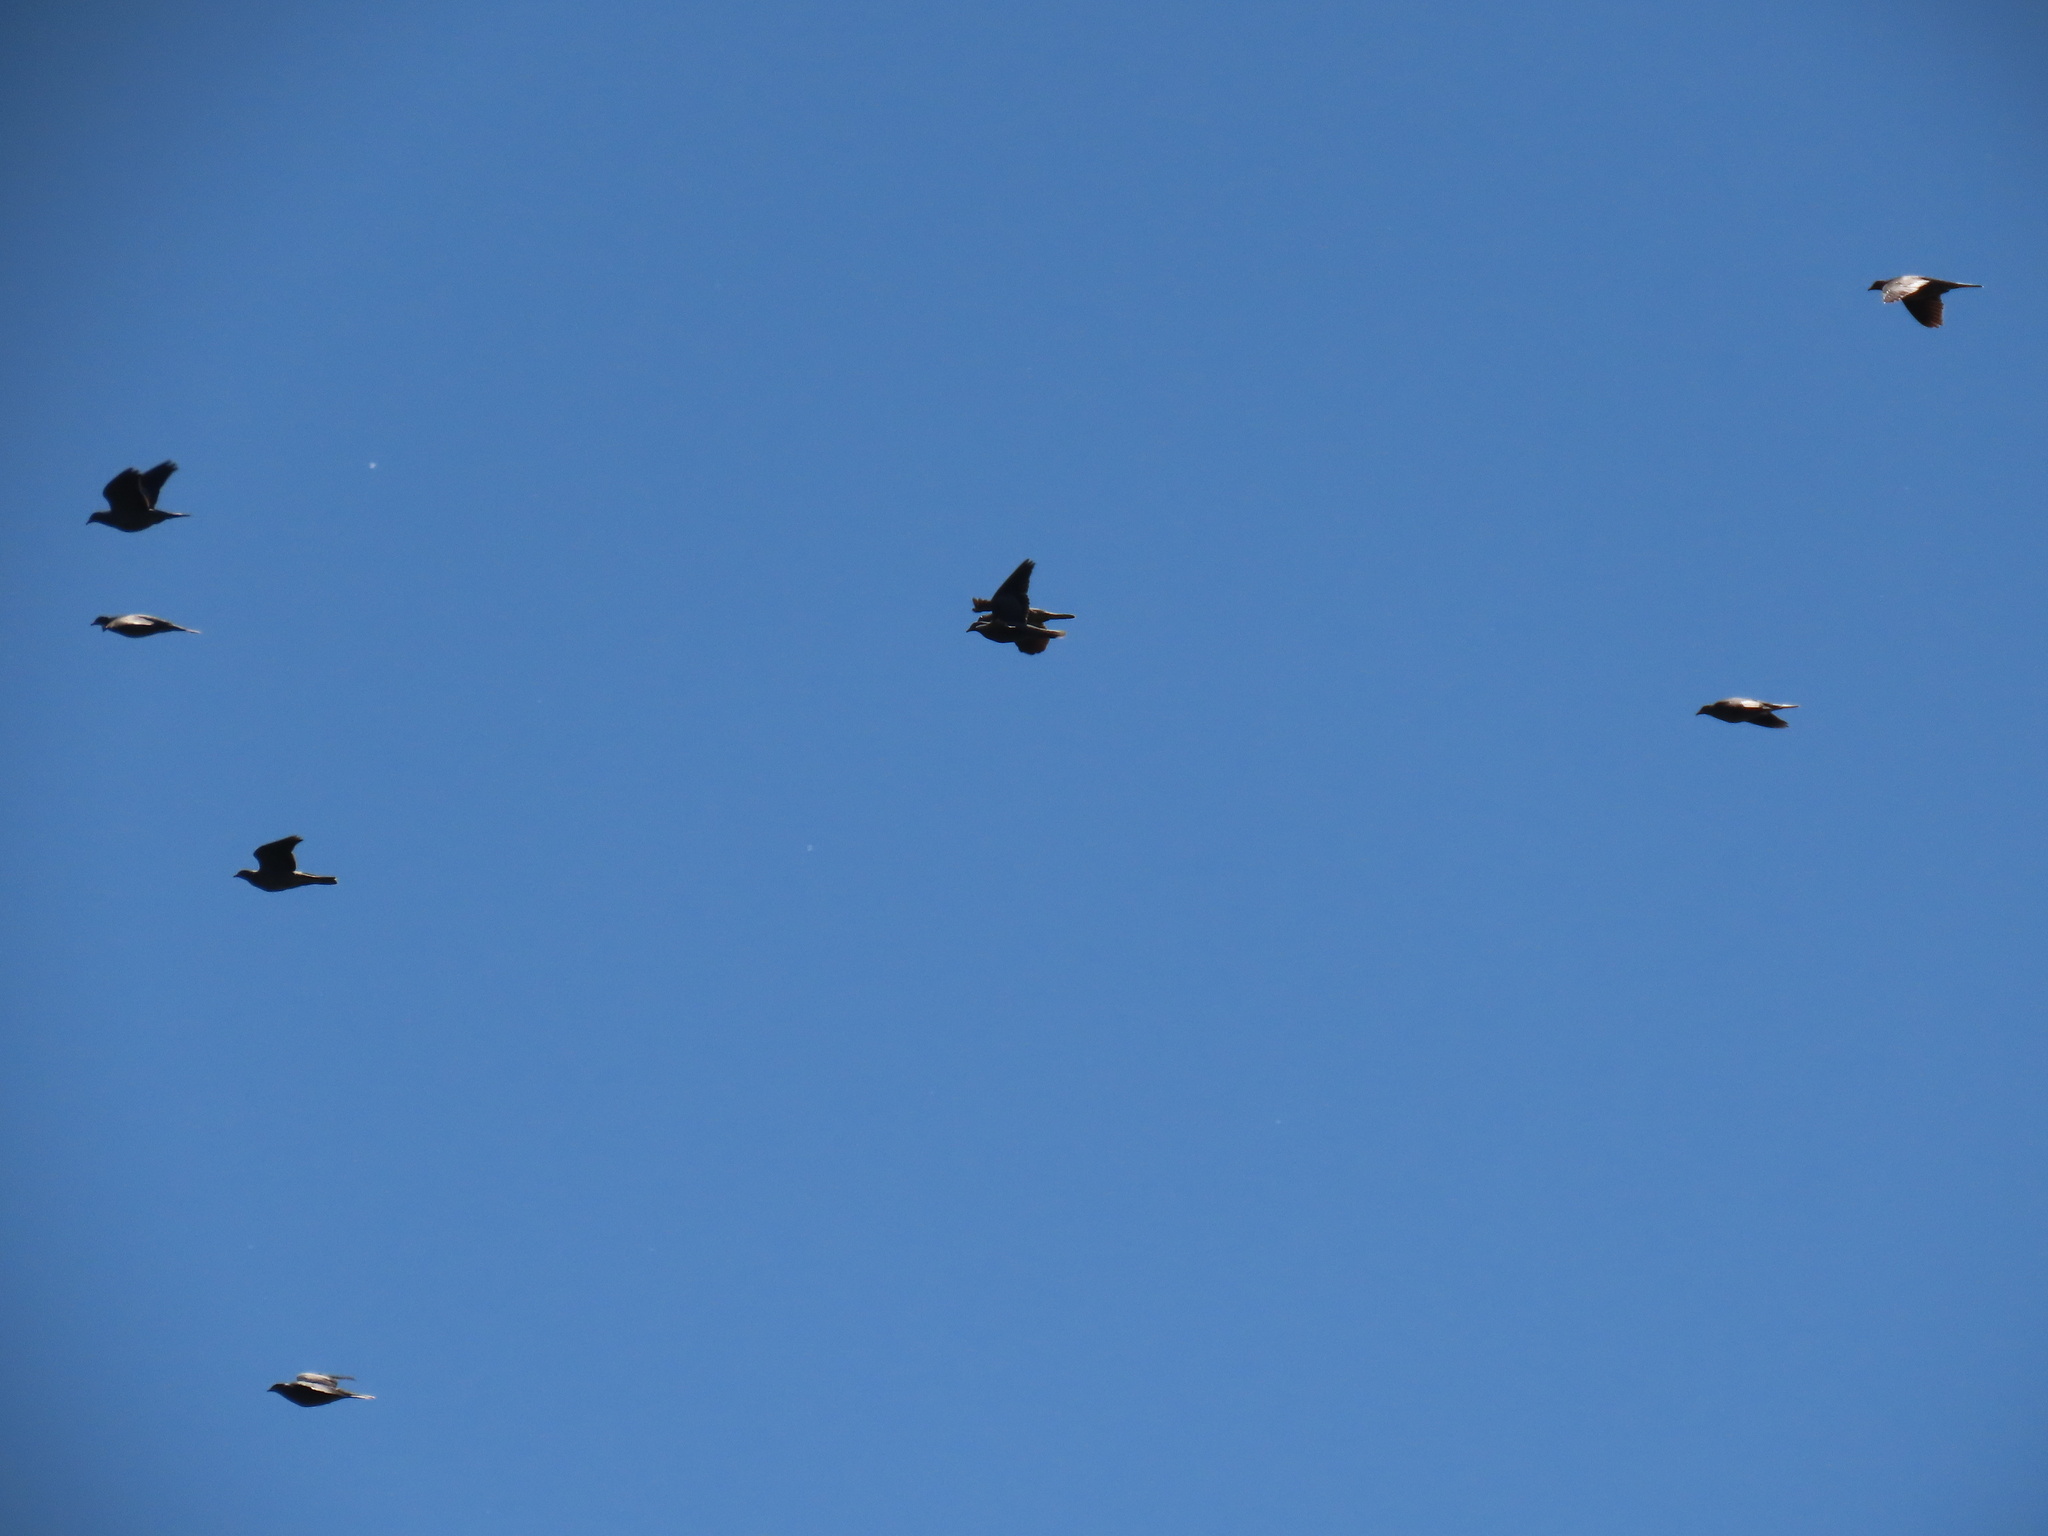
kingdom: Animalia
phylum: Chordata
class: Aves
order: Columbiformes
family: Columbidae
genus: Patagioenas
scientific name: Patagioenas fasciata
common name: Band-tailed pigeon
